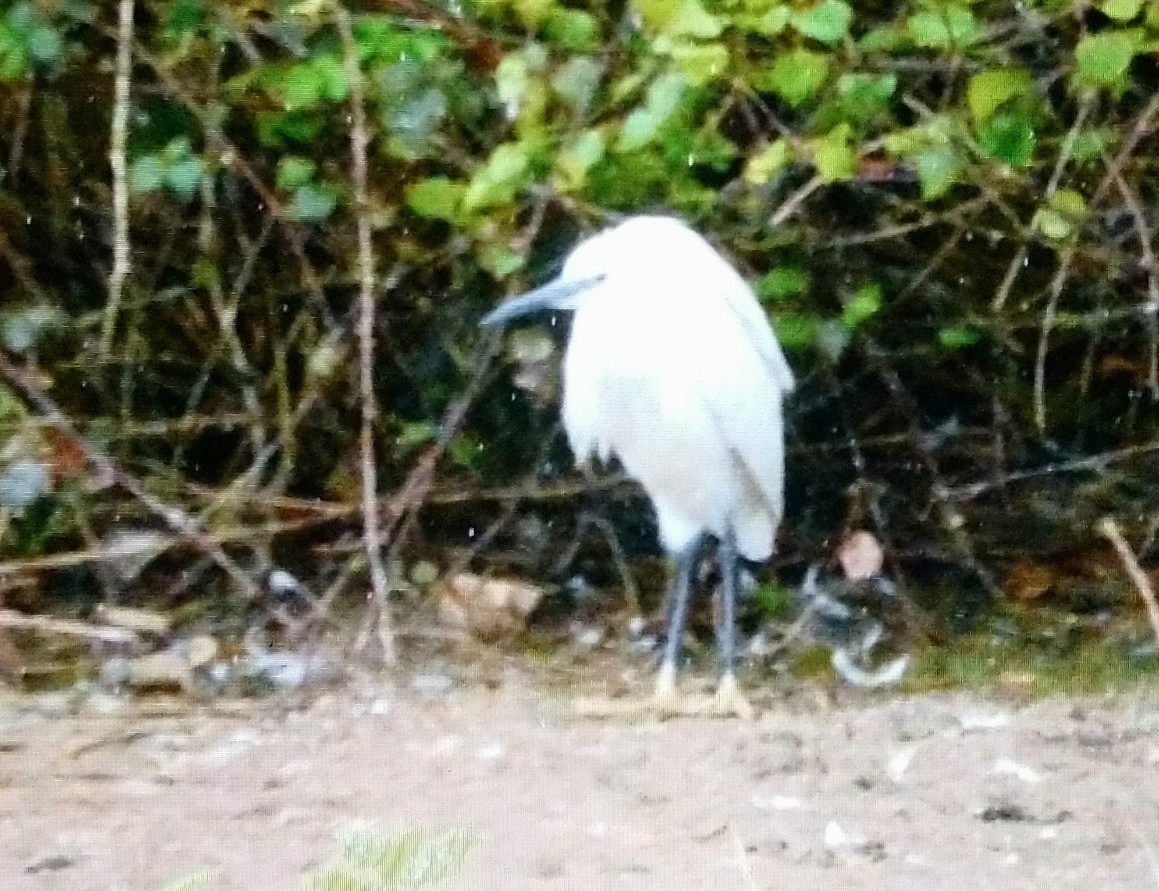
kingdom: Animalia
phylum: Chordata
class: Aves
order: Pelecaniformes
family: Ardeidae
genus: Egretta
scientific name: Egretta garzetta
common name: Little egret
